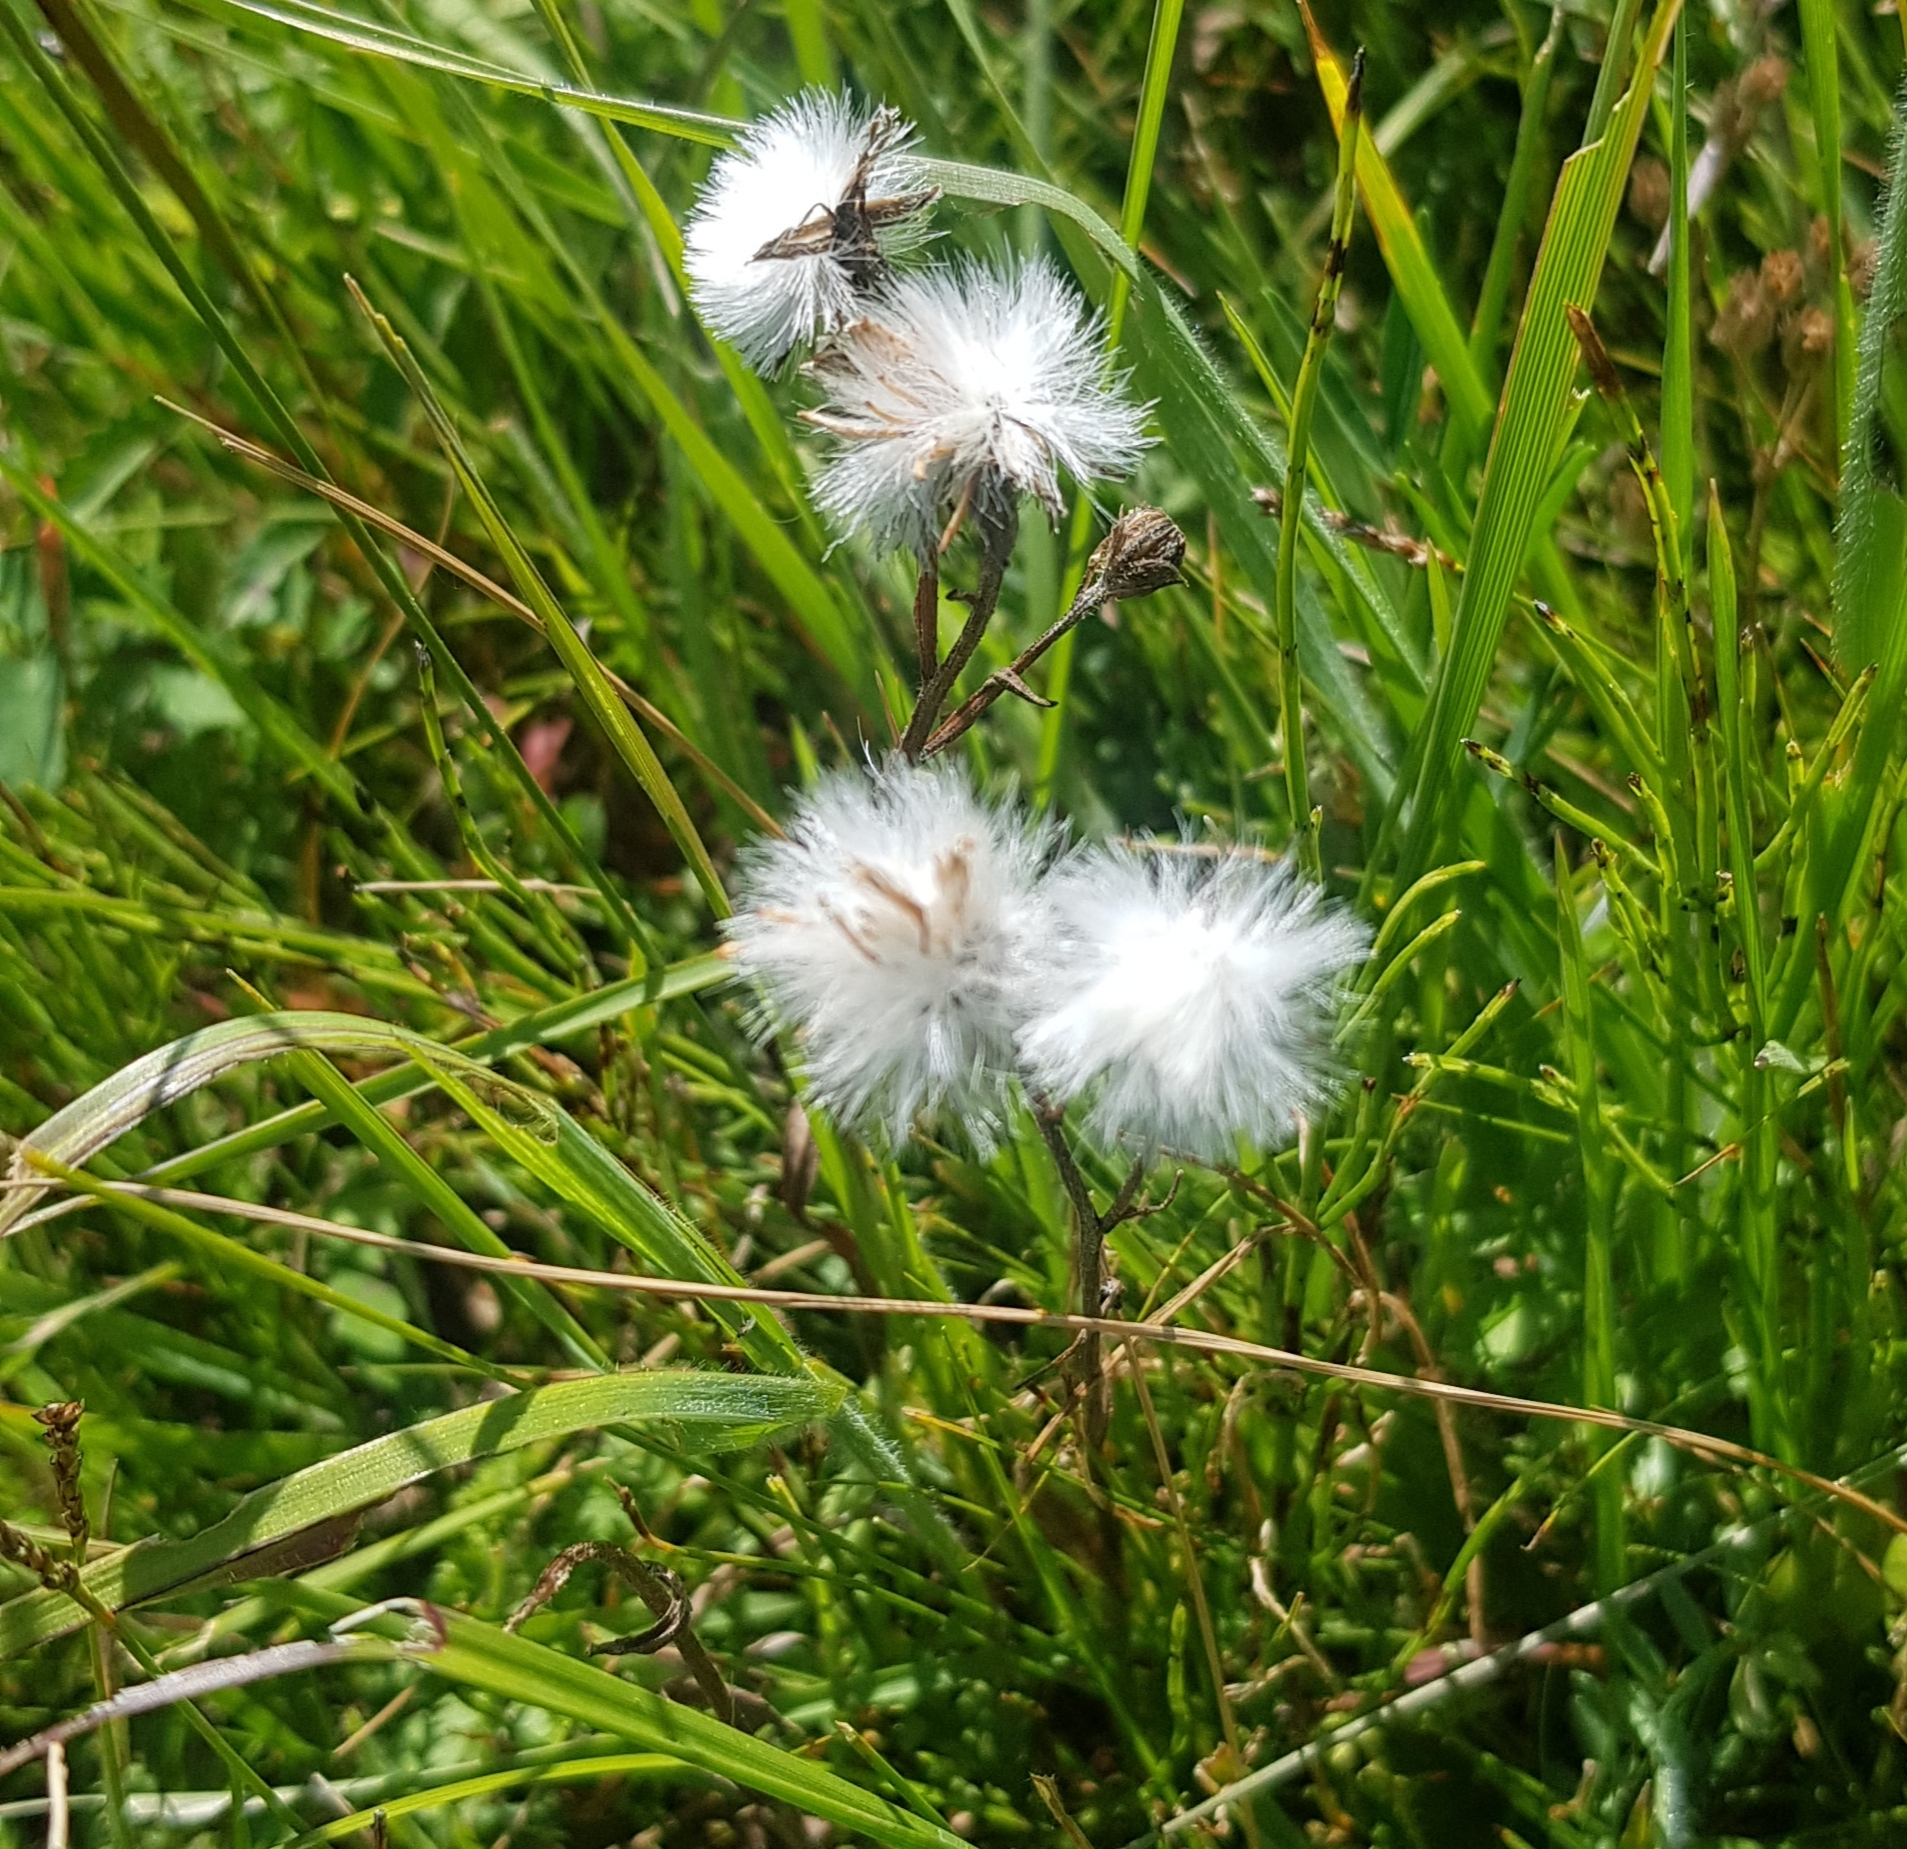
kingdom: Plantae
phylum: Tracheophyta
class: Magnoliopsida
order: Asterales
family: Asteraceae
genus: Sonchus
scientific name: Sonchus arvensis
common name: Perennial sow-thistle
